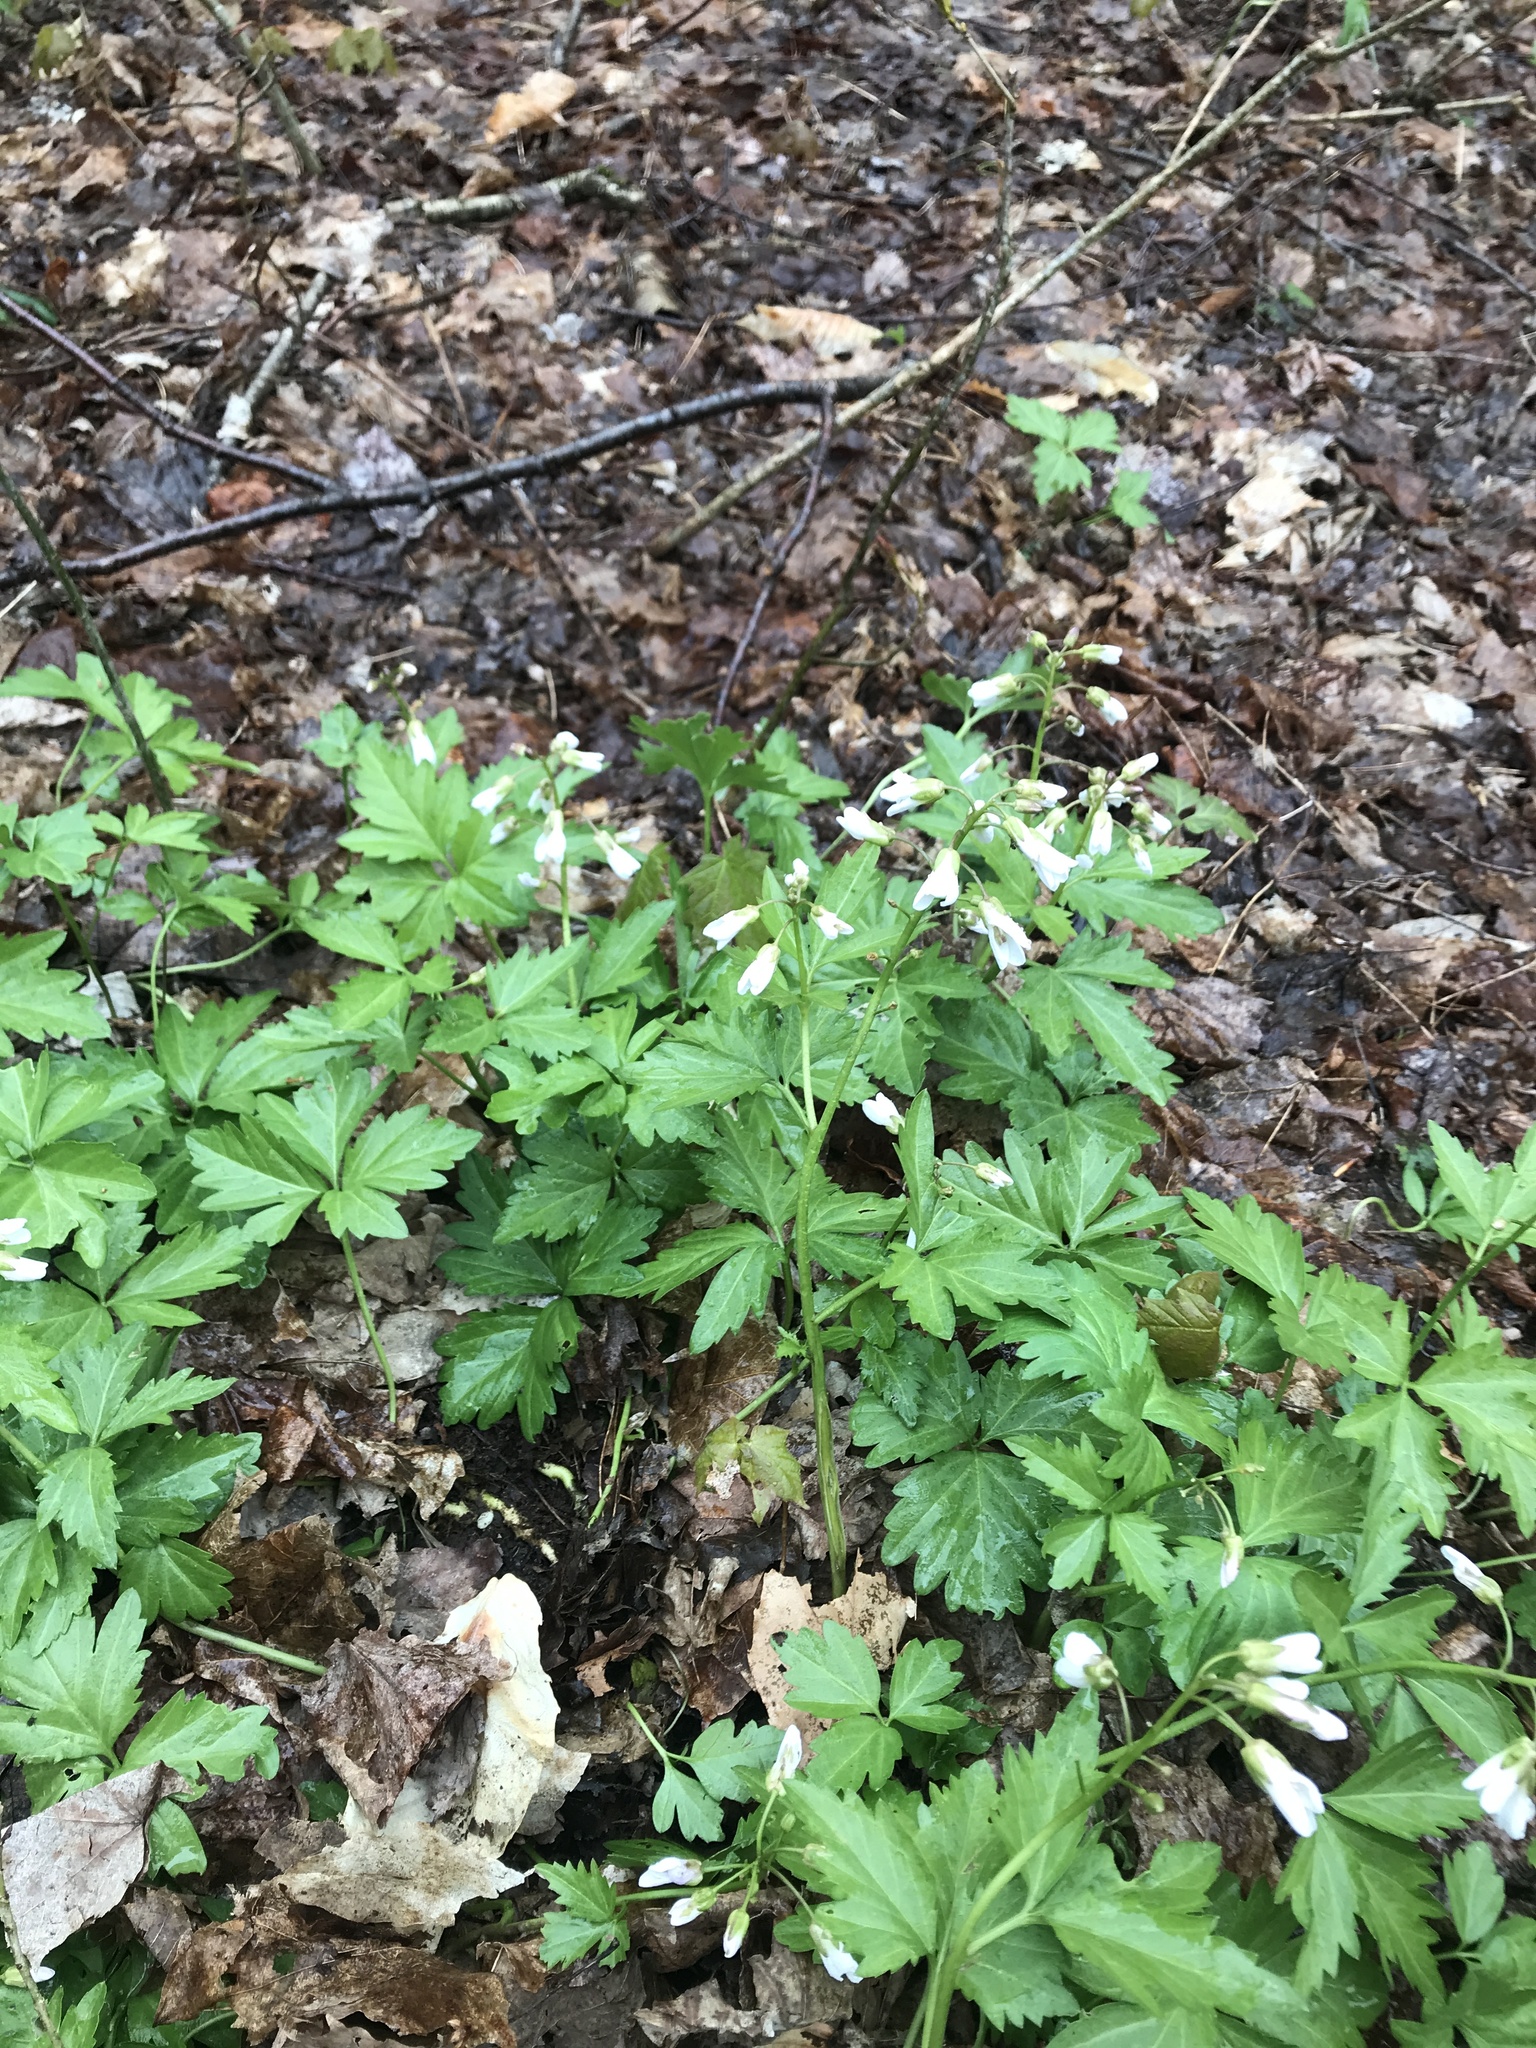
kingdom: Plantae
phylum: Tracheophyta
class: Magnoliopsida
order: Brassicales
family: Brassicaceae
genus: Cardamine
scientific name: Cardamine maxima
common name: Great bittercress
